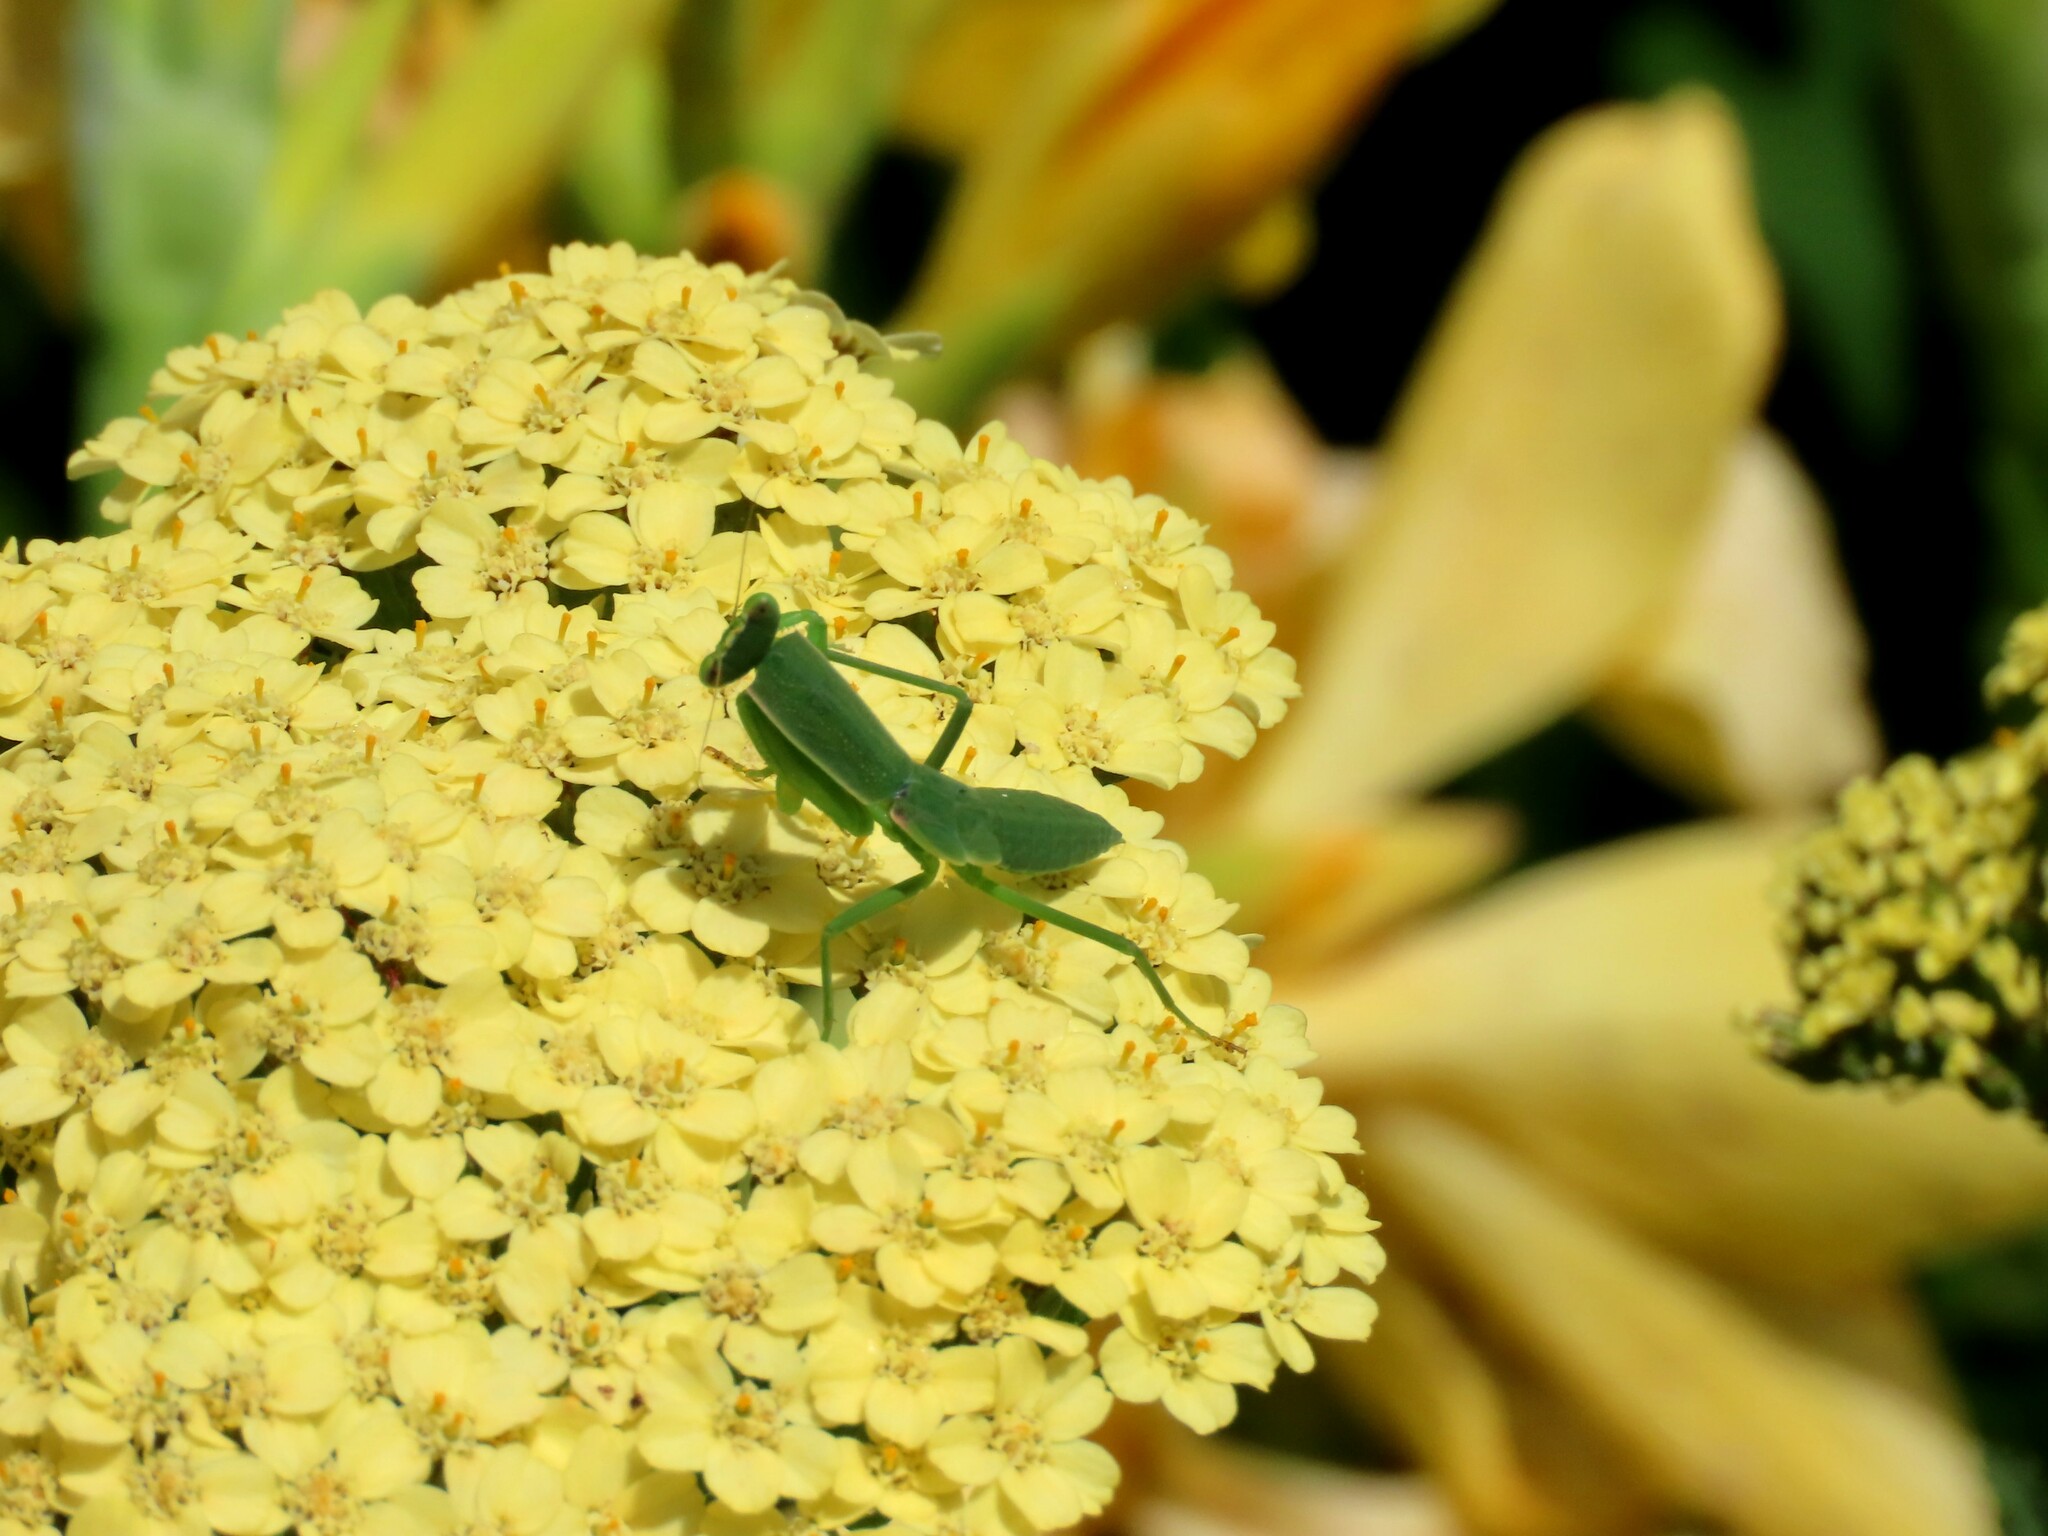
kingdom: Animalia
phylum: Arthropoda
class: Insecta
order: Mantodea
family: Mantidae
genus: Orthodera
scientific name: Orthodera ministralis
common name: Mantis
